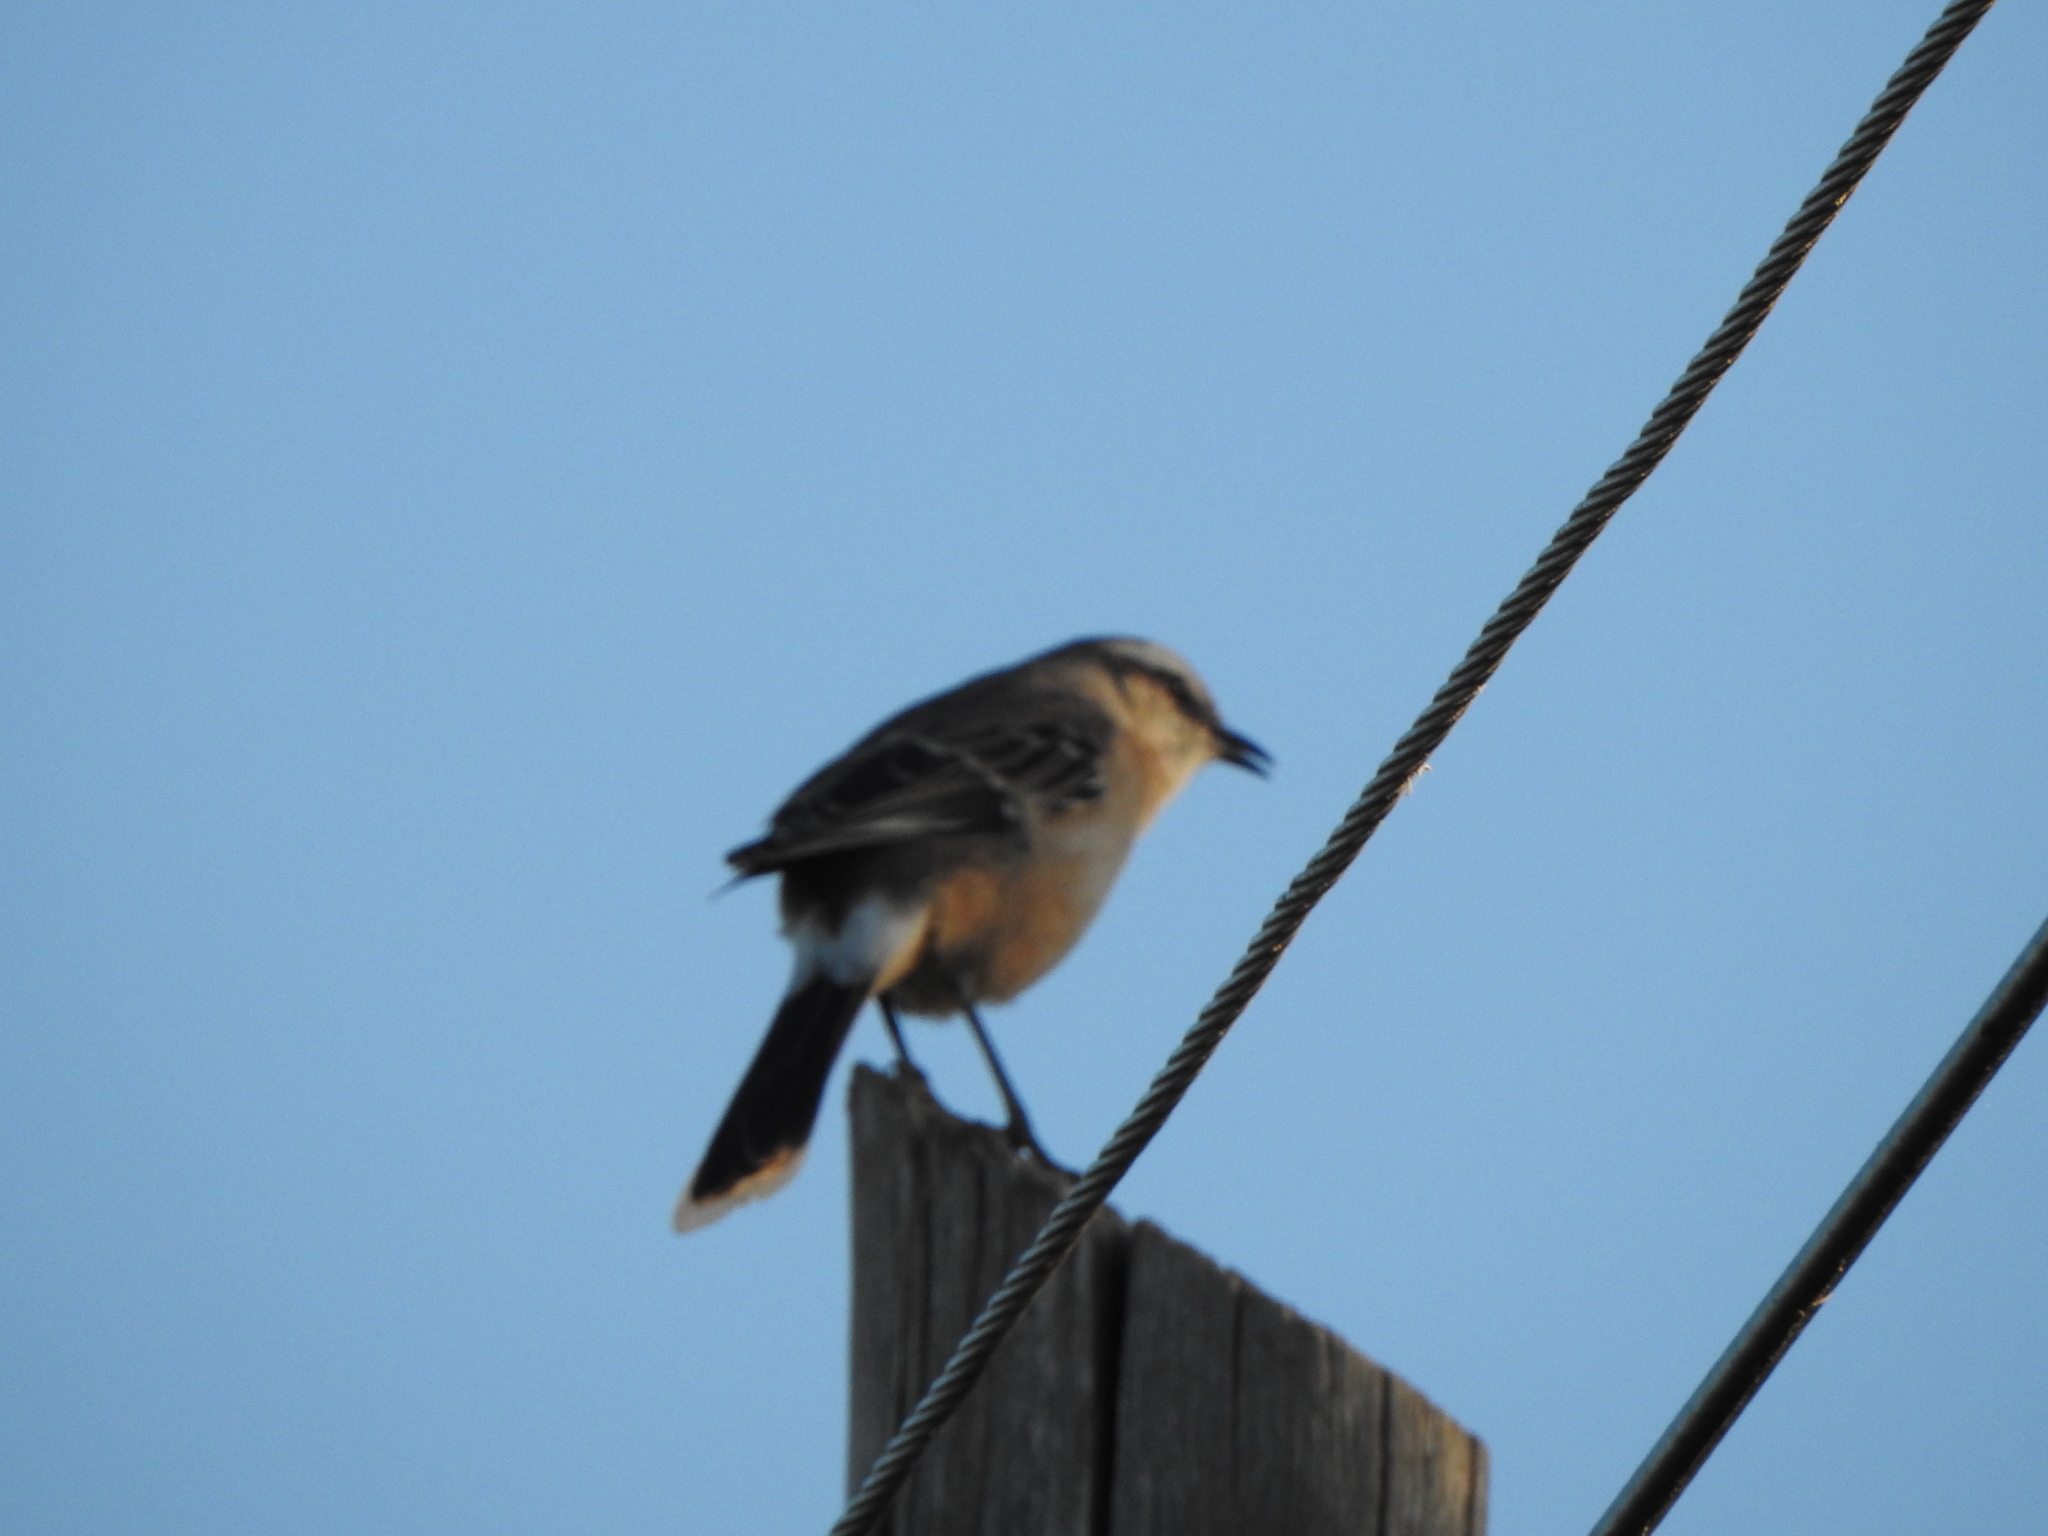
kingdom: Animalia
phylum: Chordata
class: Aves
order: Passeriformes
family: Mimidae
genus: Mimus
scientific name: Mimus saturninus
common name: Chalk-browed mockingbird
